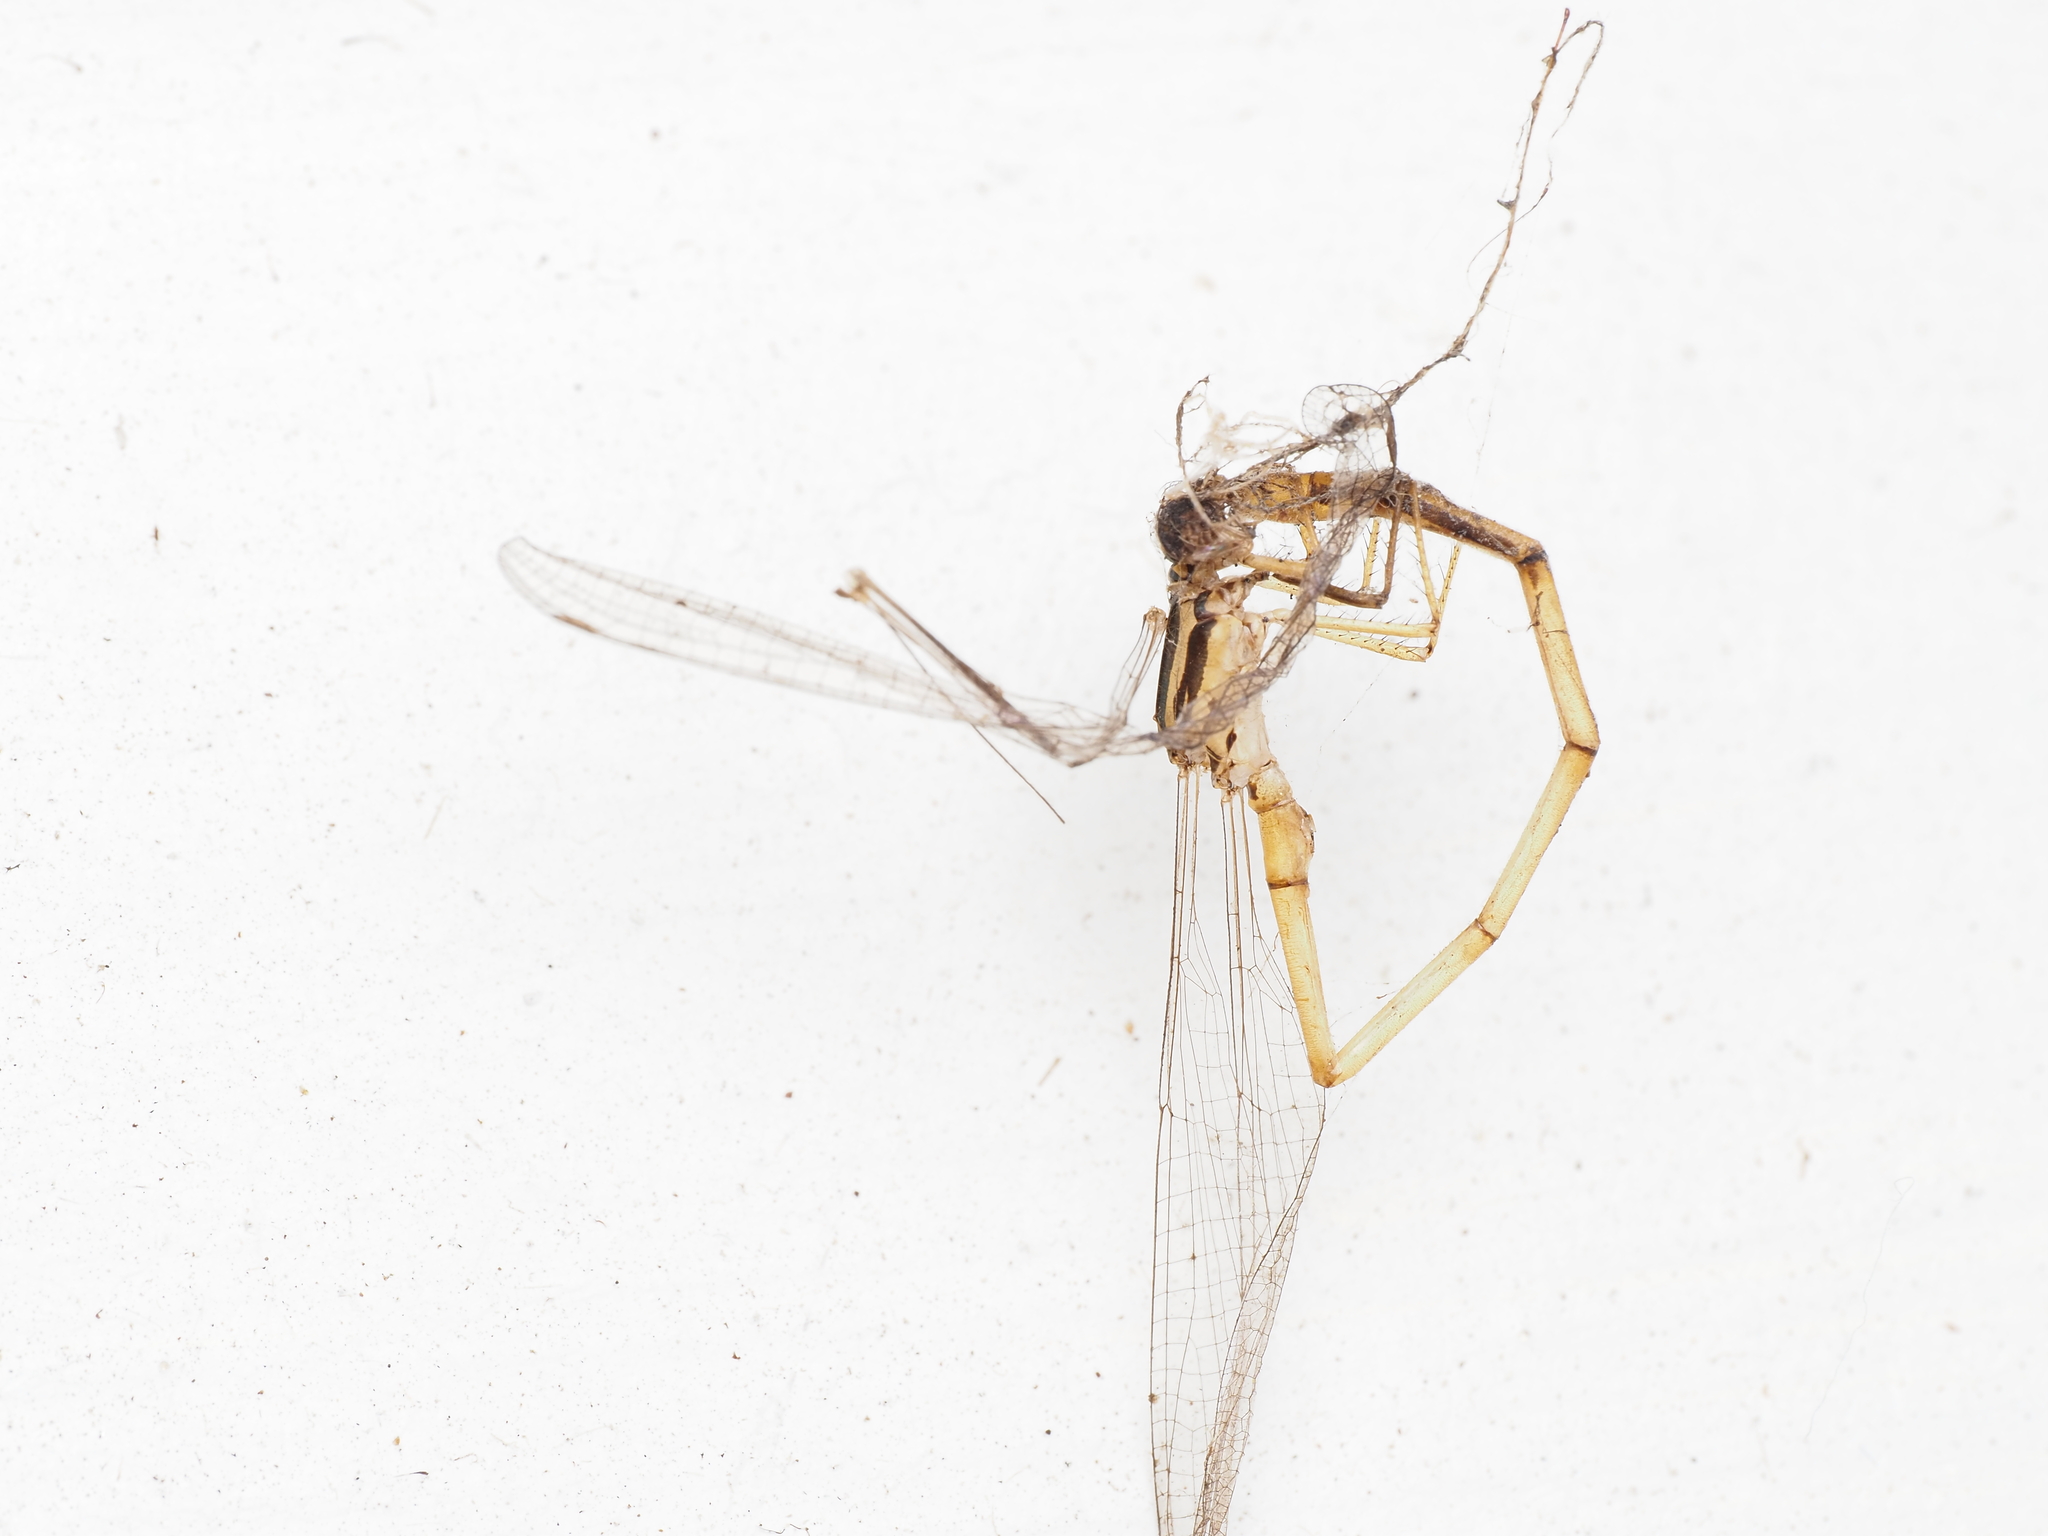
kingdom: Animalia
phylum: Arthropoda
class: Insecta
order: Odonata
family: Coenagrionidae
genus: Xanthocnemis
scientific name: Xanthocnemis zealandica
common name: Common redcoat damselfly
